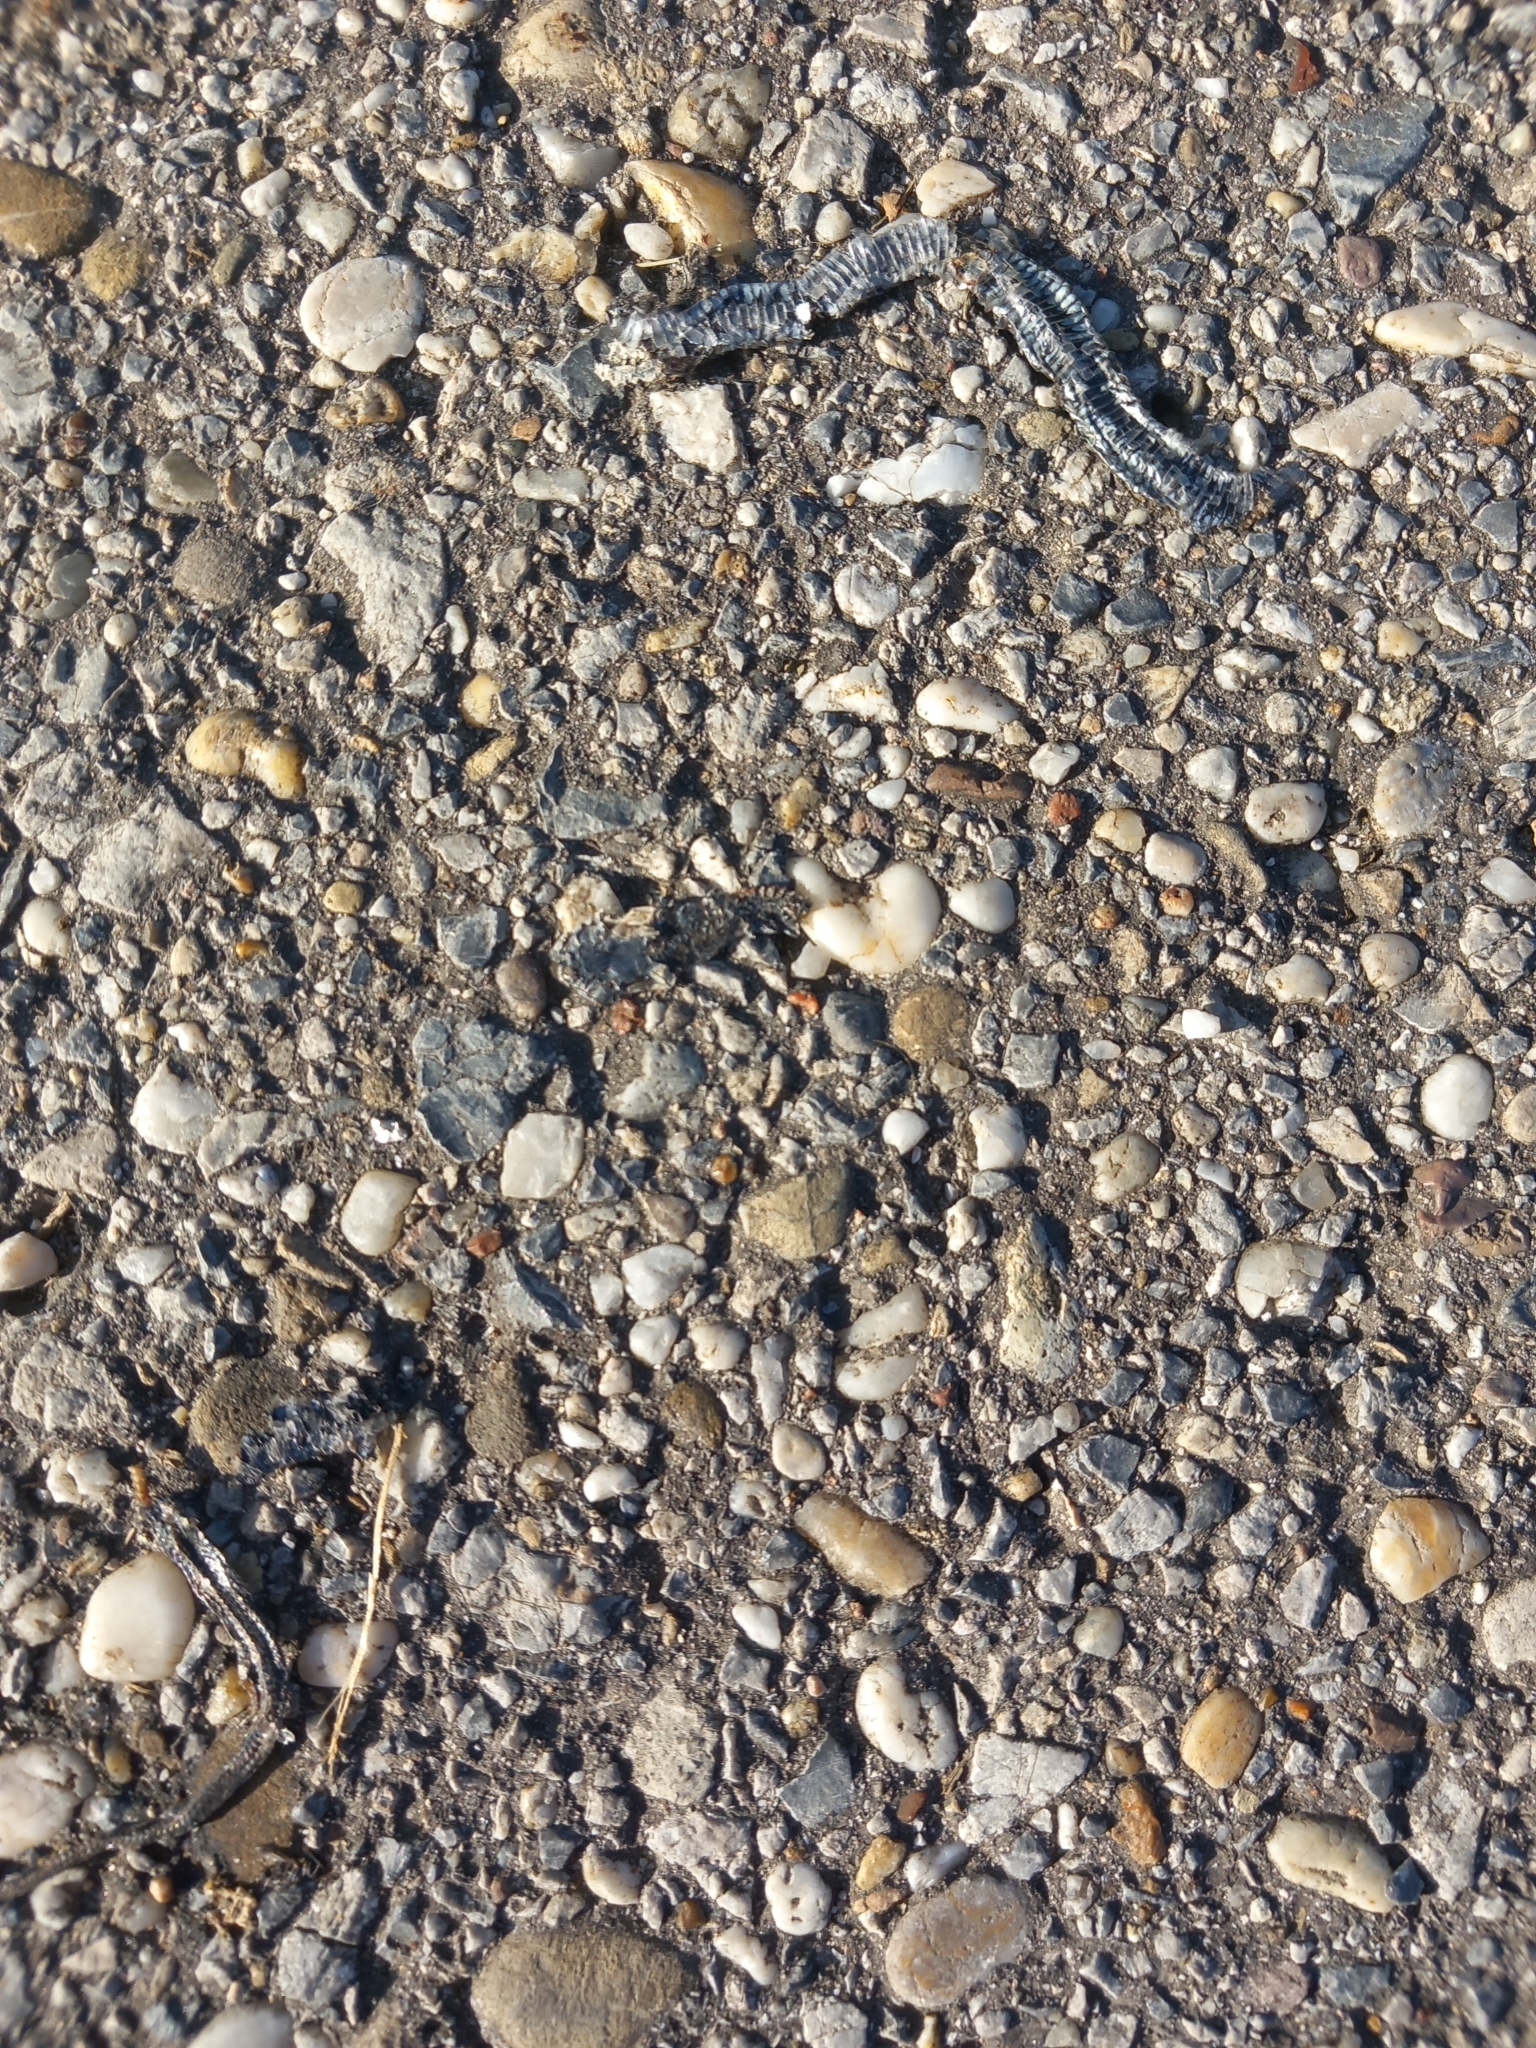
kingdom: Animalia
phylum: Chordata
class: Squamata
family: Colubridae
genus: Natrix
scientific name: Natrix natrix
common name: Grass snake
